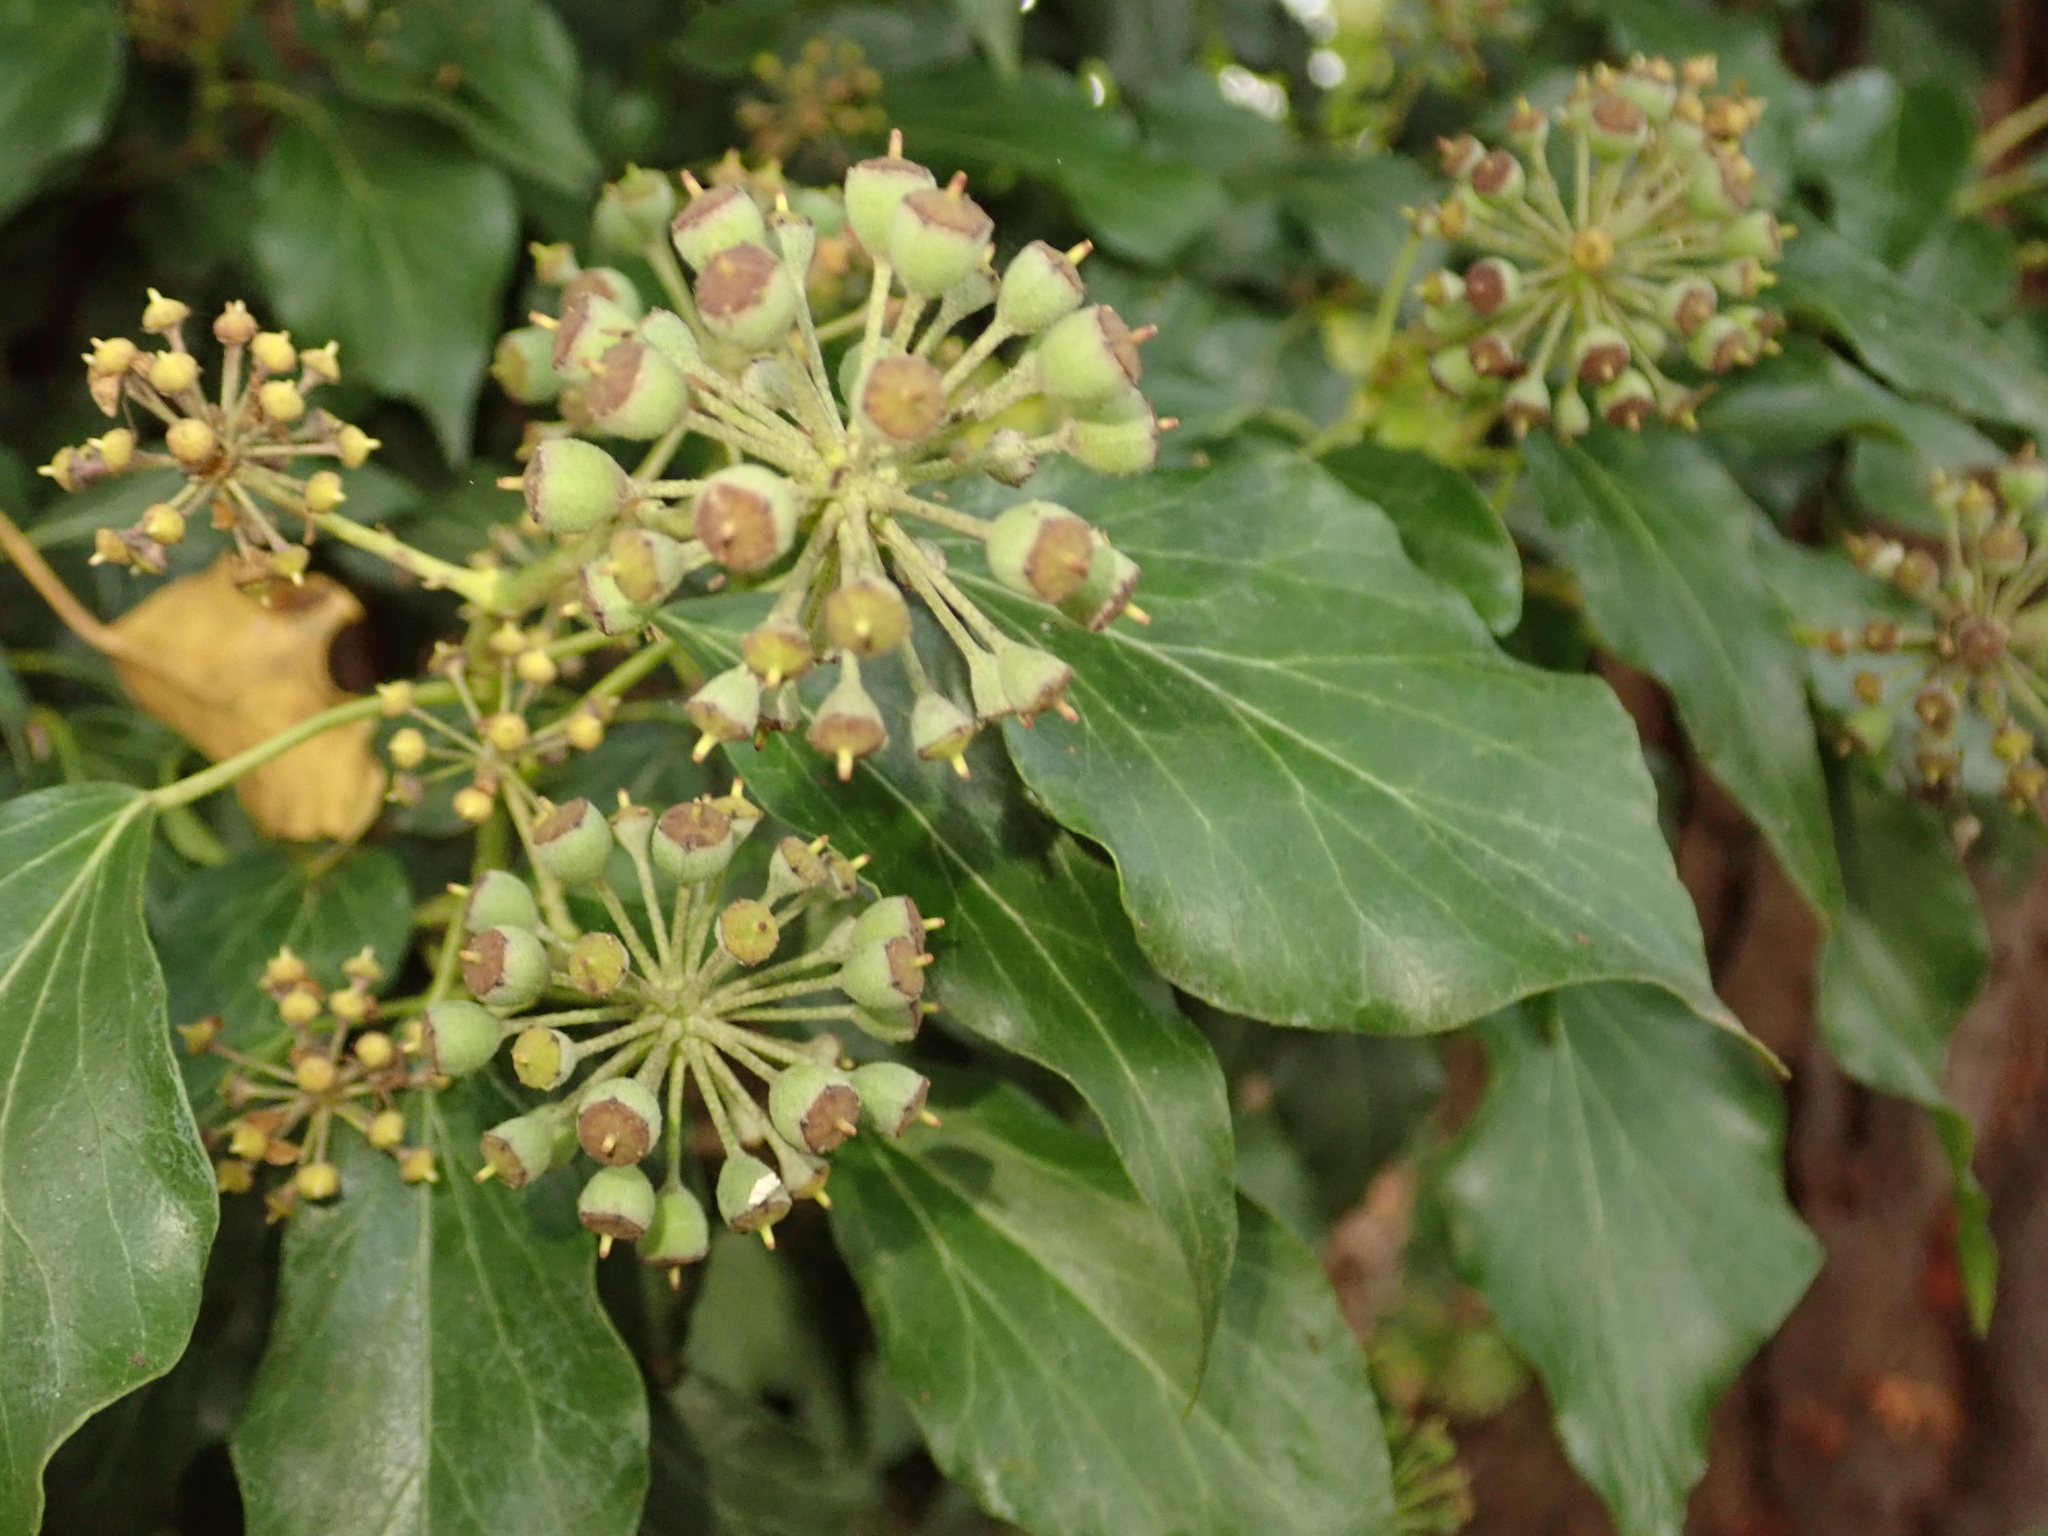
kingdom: Plantae
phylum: Tracheophyta
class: Magnoliopsida
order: Apiales
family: Araliaceae
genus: Hedera
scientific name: Hedera helix
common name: Ivy
